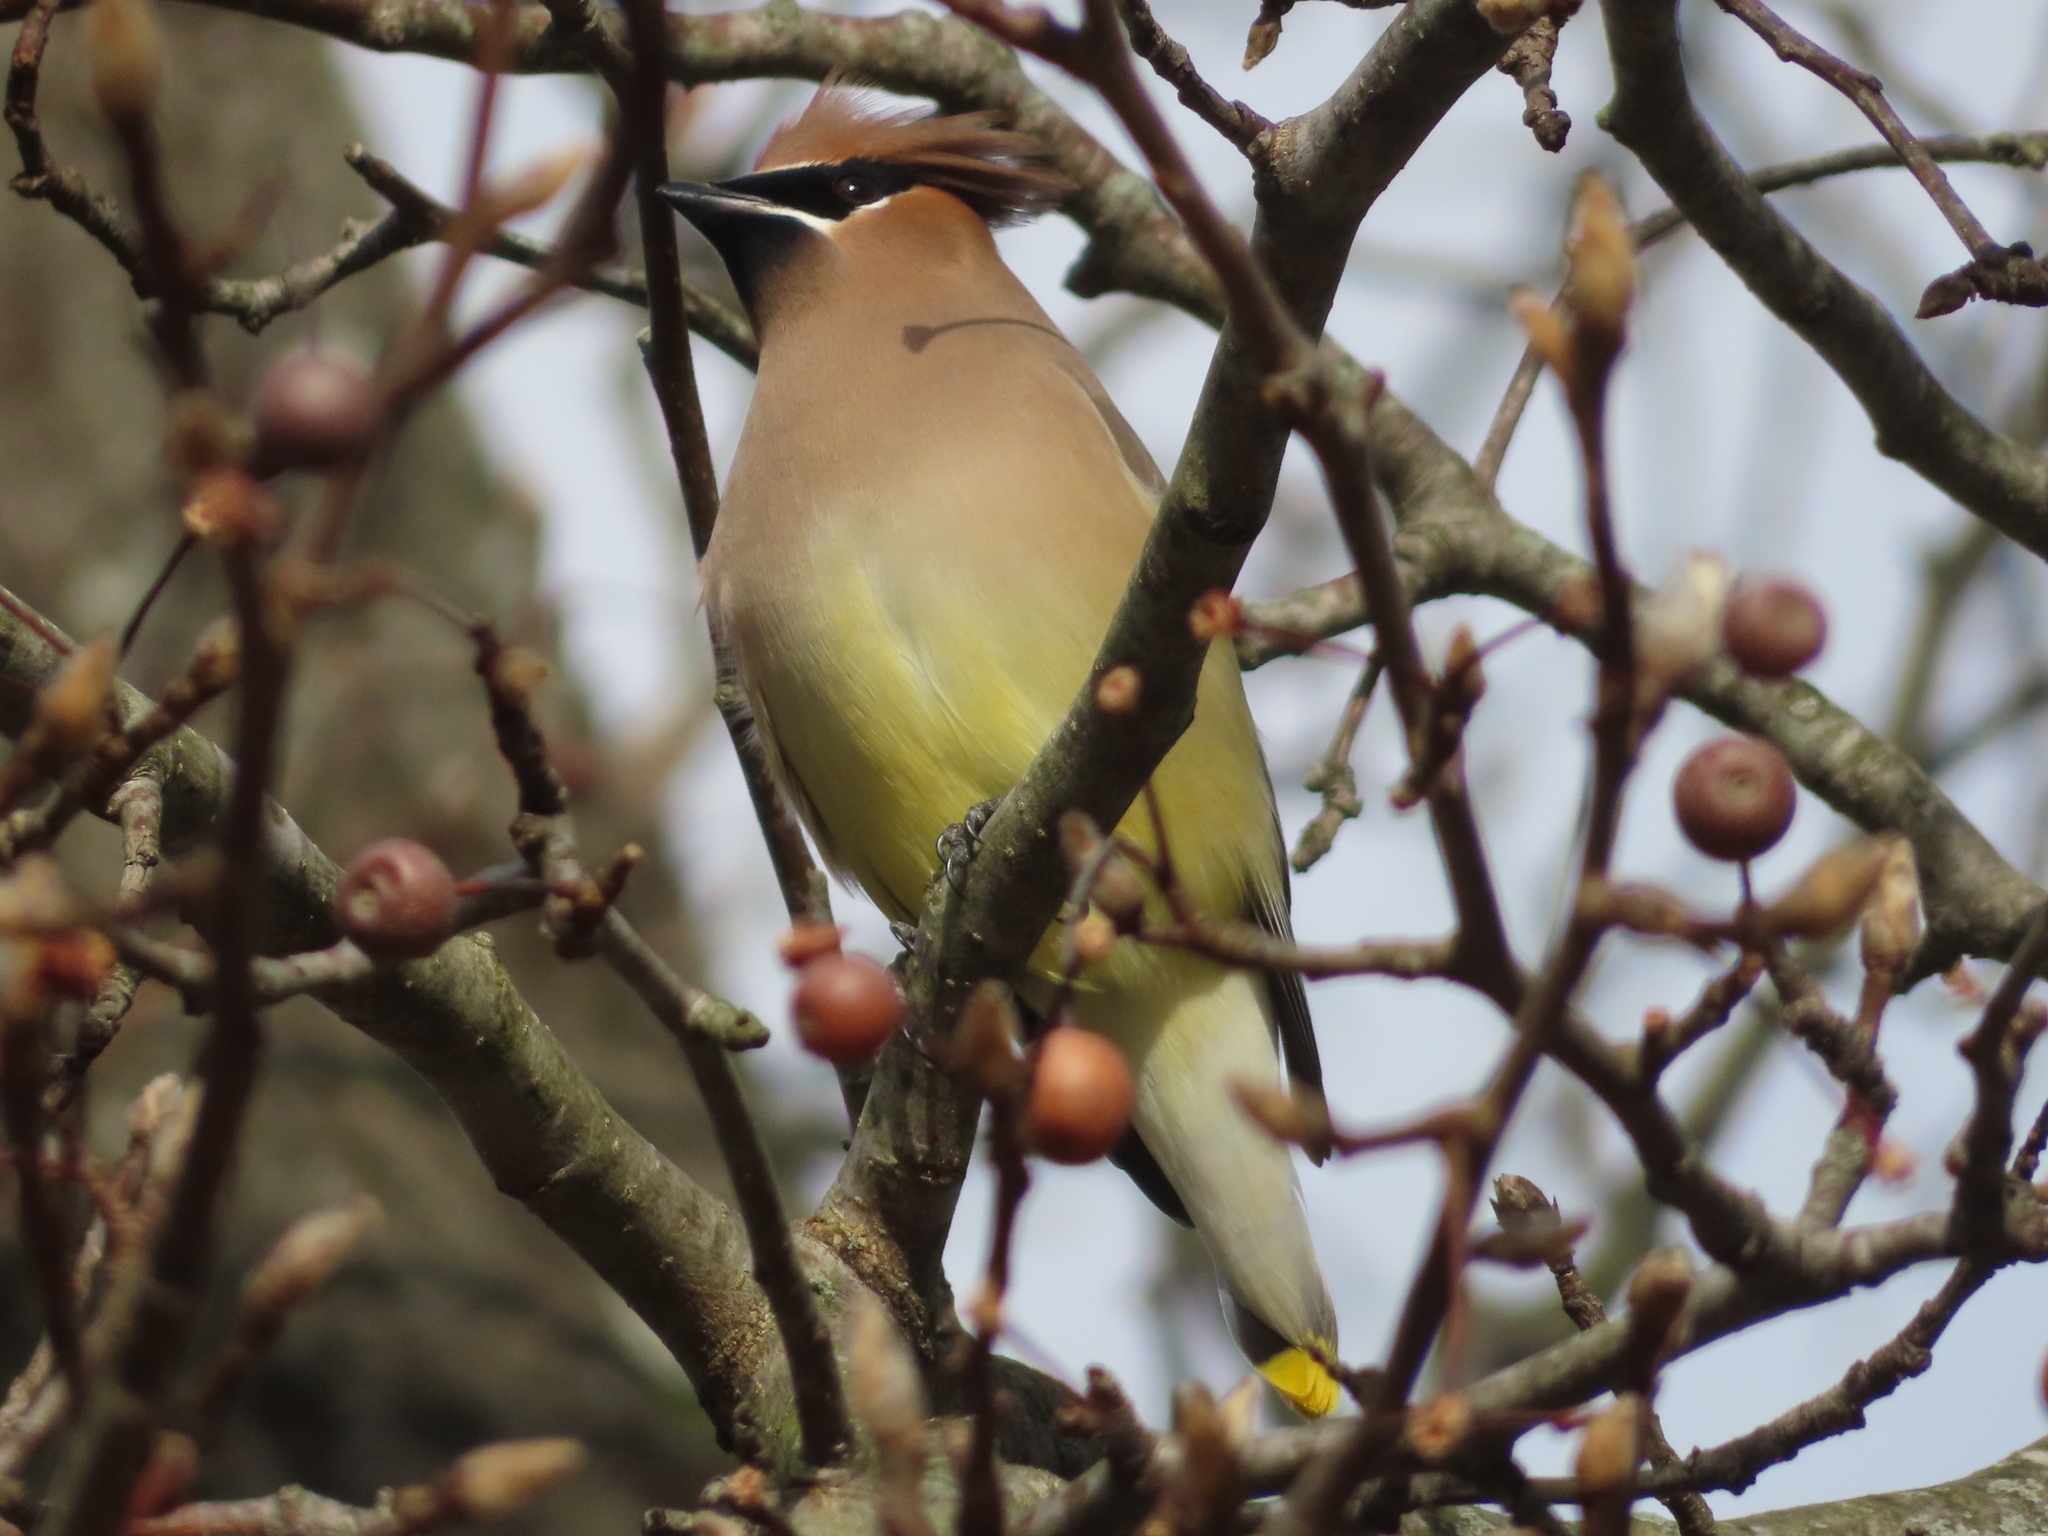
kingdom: Animalia
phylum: Chordata
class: Aves
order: Passeriformes
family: Bombycillidae
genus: Bombycilla
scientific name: Bombycilla cedrorum
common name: Cedar waxwing
